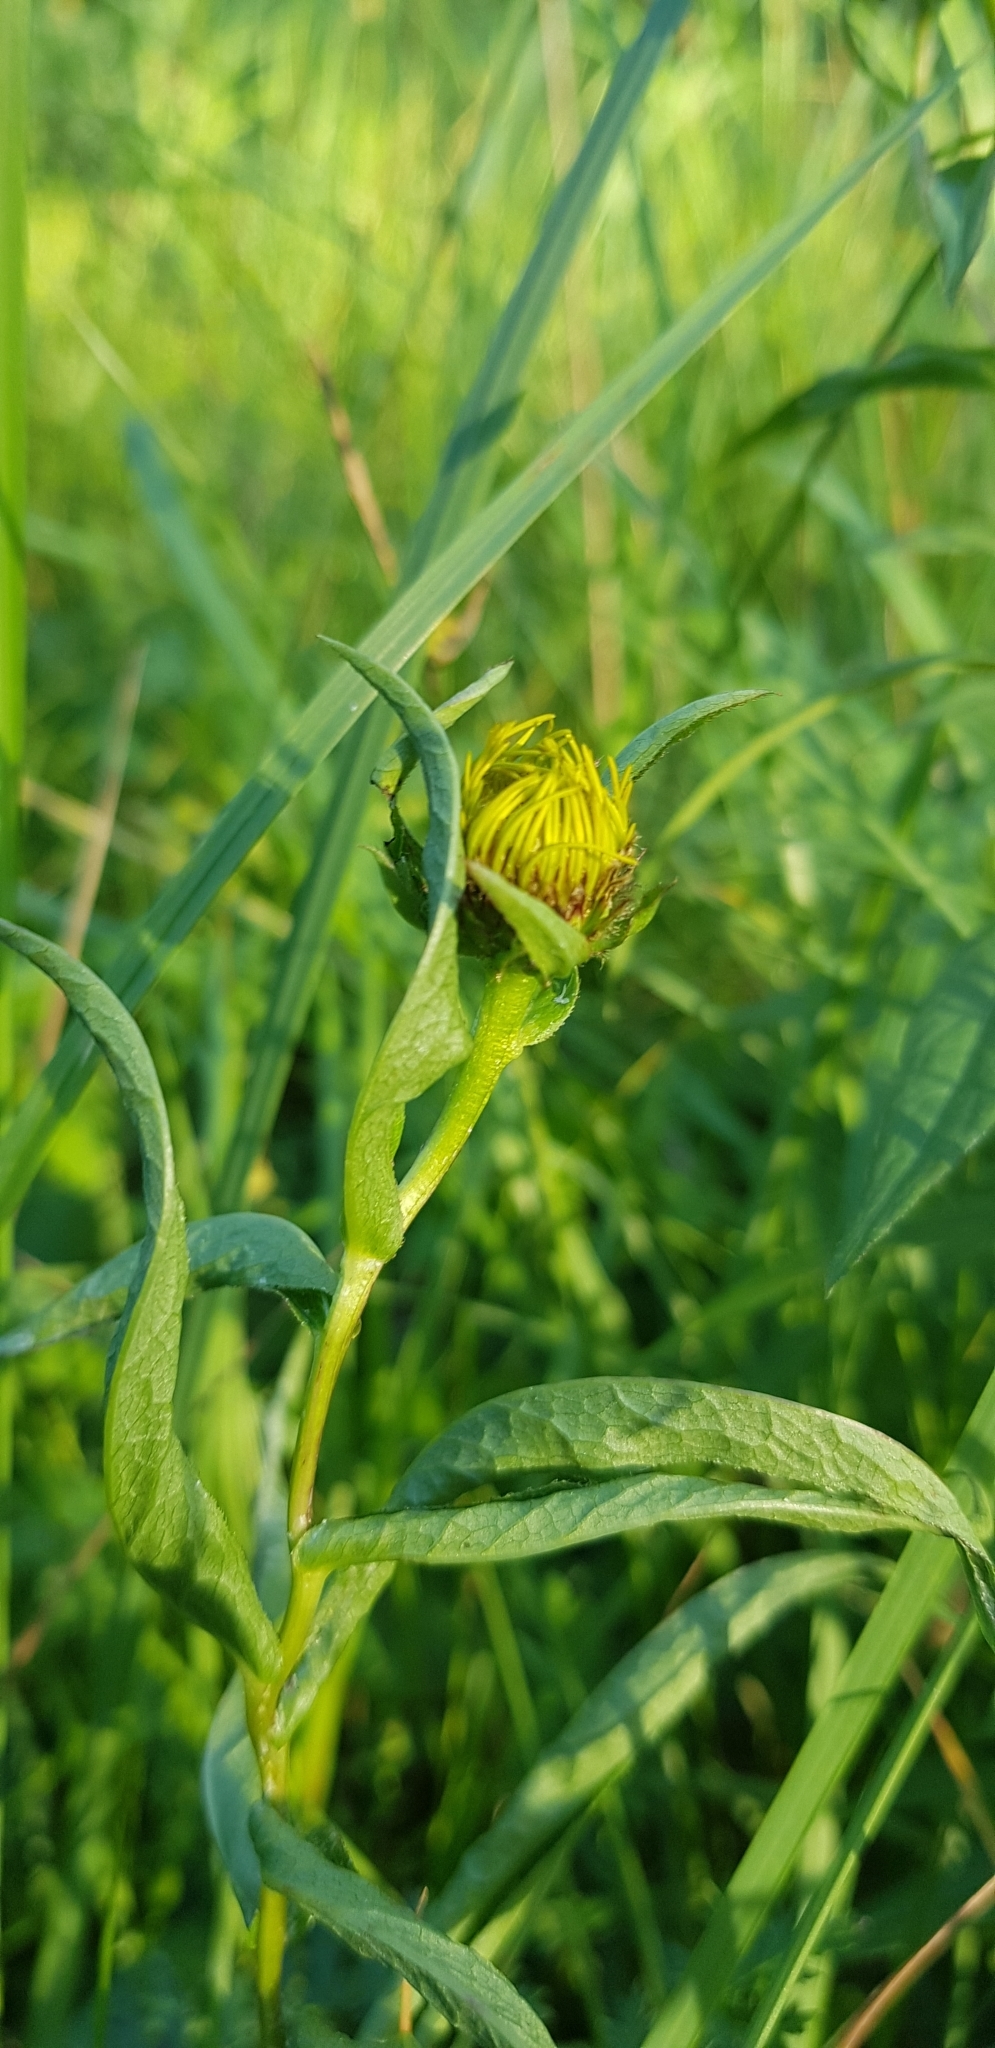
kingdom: Plantae
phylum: Tracheophyta
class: Magnoliopsida
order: Asterales
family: Asteraceae
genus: Pentanema
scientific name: Pentanema salicinum
